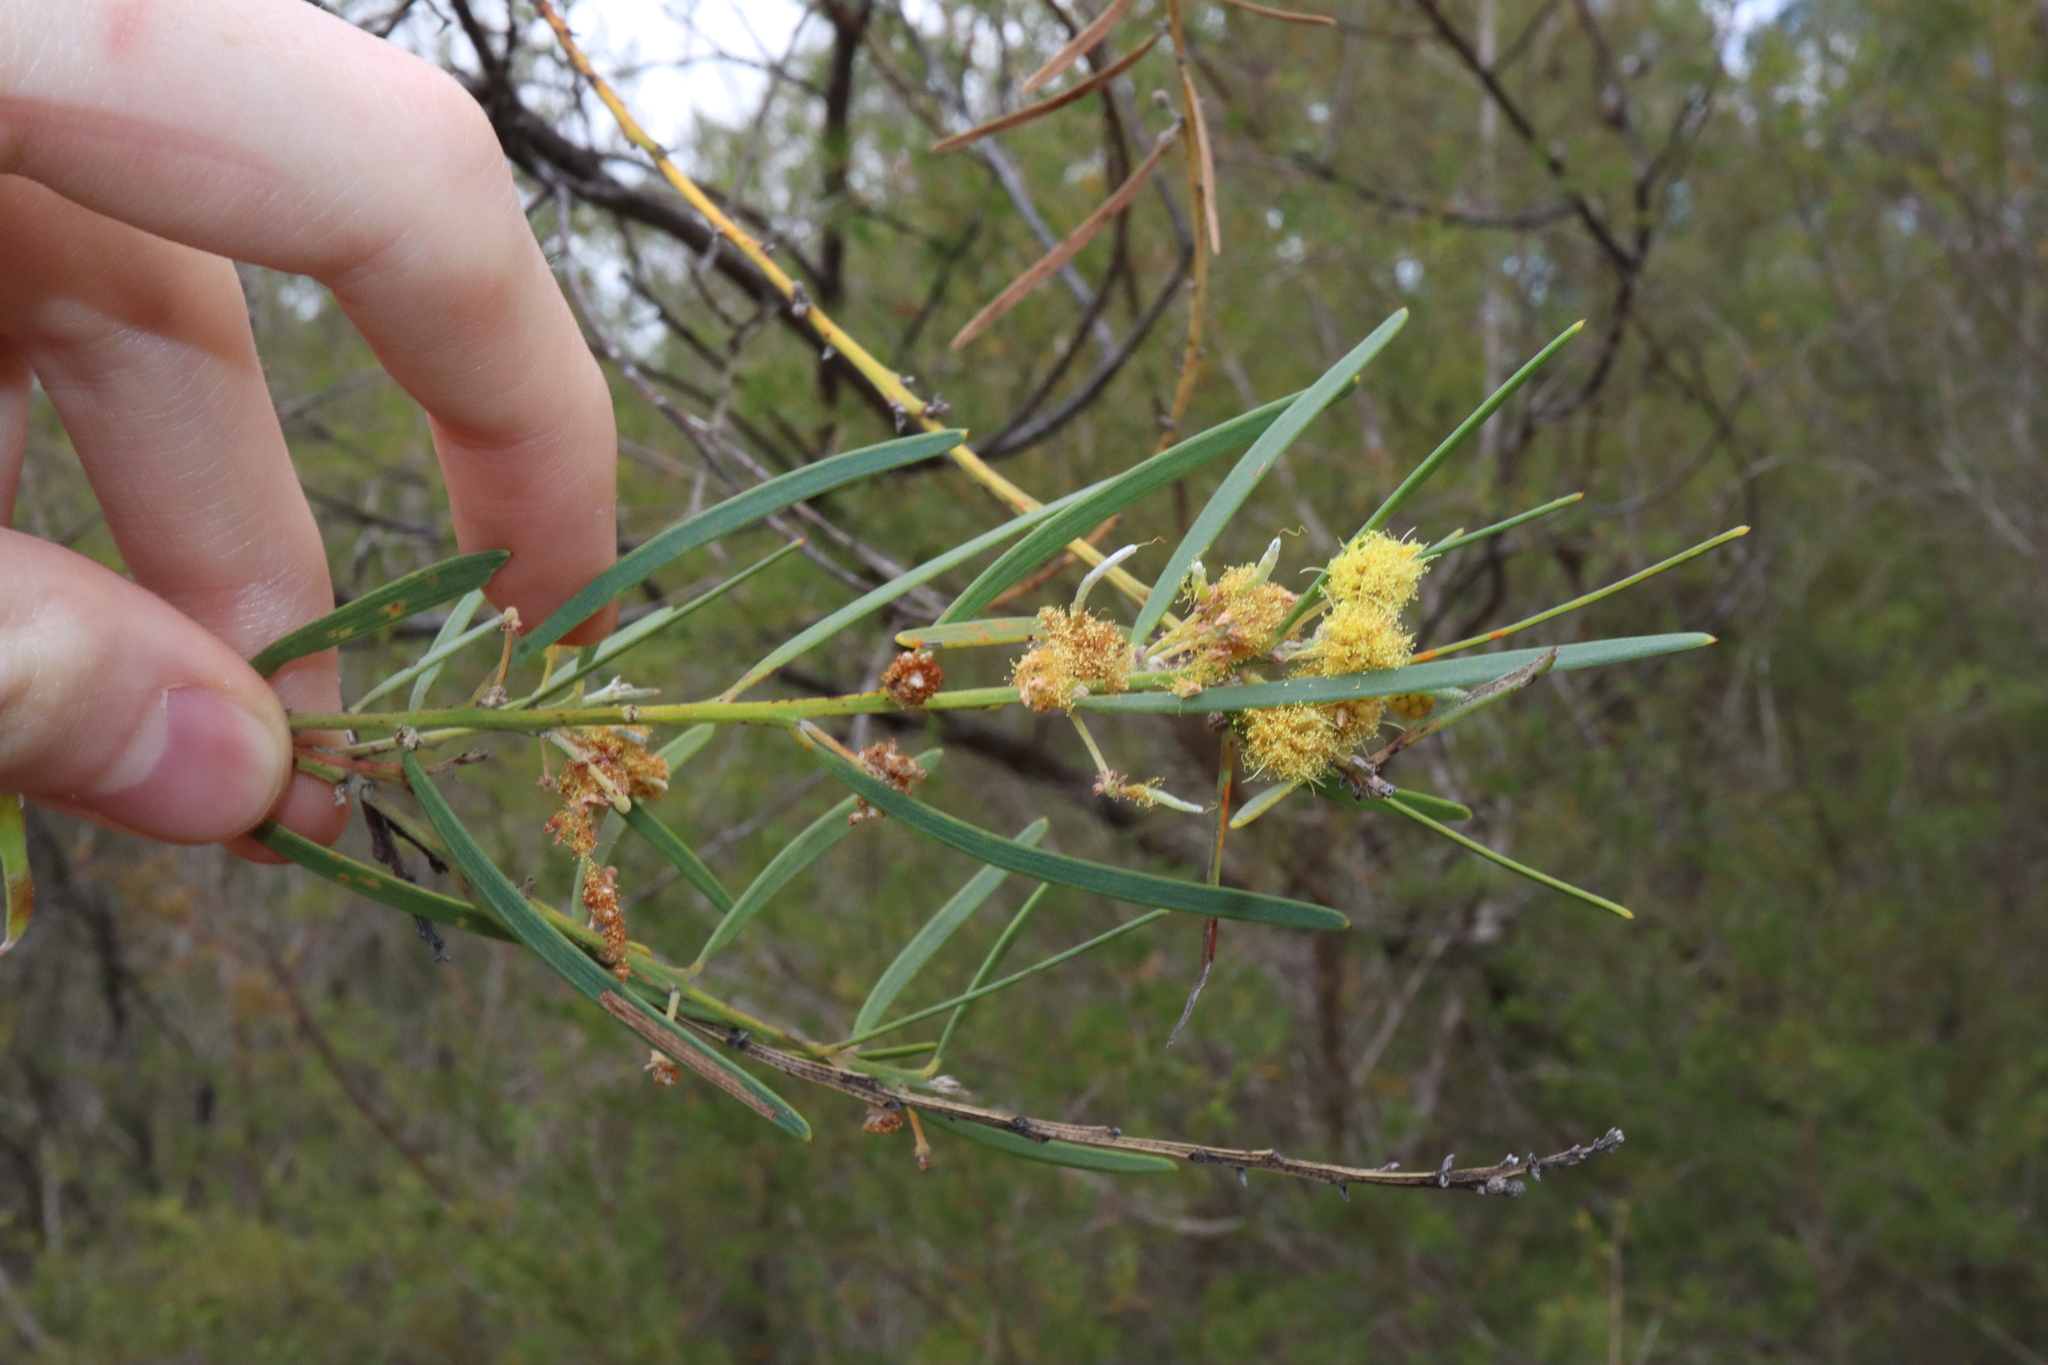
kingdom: Plantae
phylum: Tracheophyta
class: Magnoliopsida
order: Fabales
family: Fabaceae
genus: Acacia
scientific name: Acacia elongata
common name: Swamp wattle
